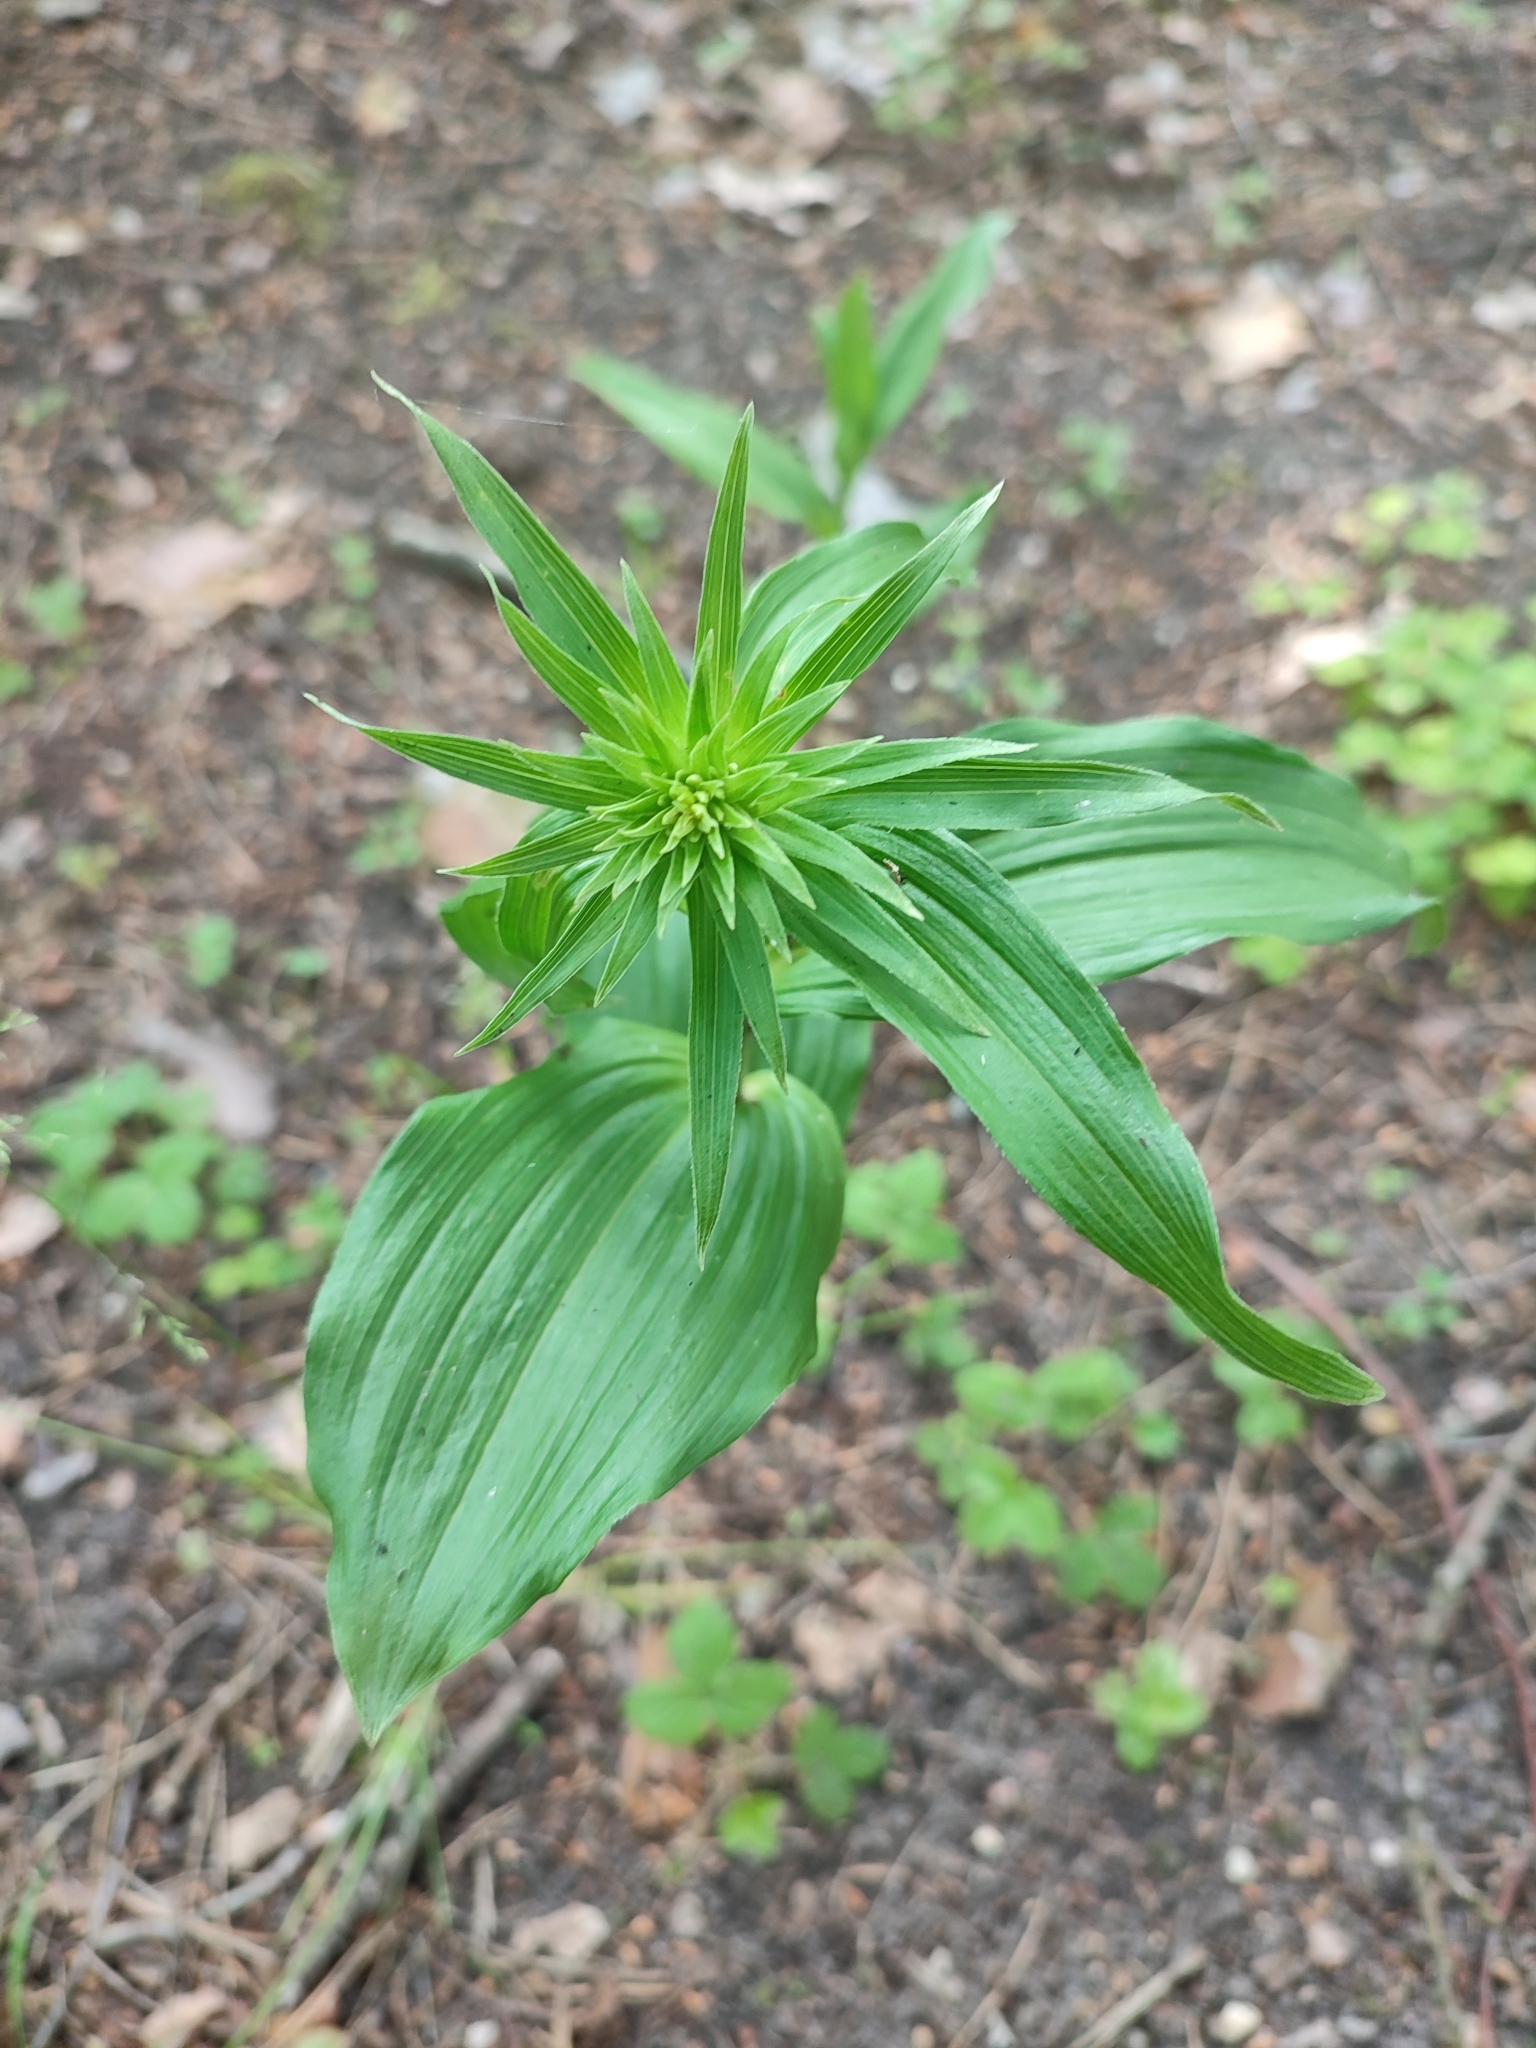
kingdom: Plantae
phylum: Tracheophyta
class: Liliopsida
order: Asparagales
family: Orchidaceae
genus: Epipactis
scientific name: Epipactis helleborine
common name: Broad-leaved helleborine
